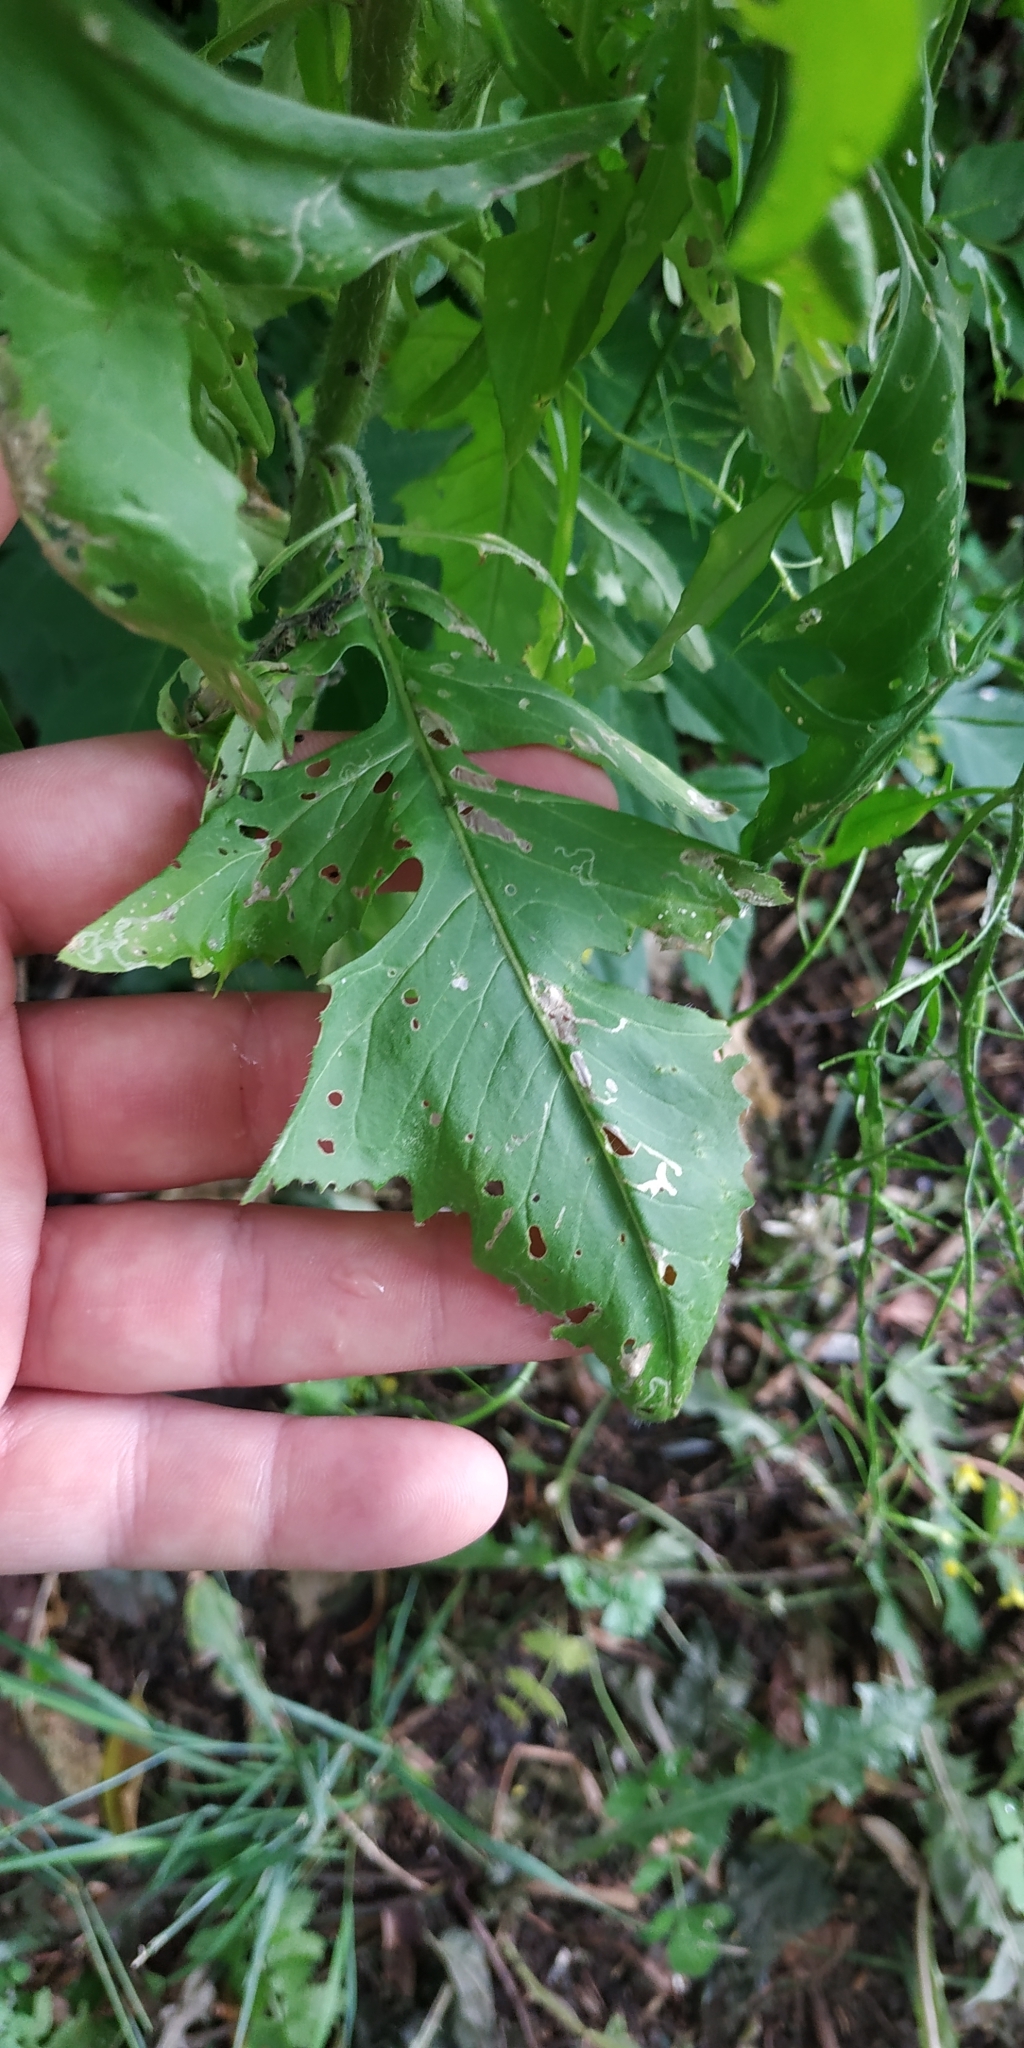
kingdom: Plantae
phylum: Tracheophyta
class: Magnoliopsida
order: Brassicales
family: Brassicaceae
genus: Sisymbrium
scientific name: Sisymbrium loeselii
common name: False london-rocket
